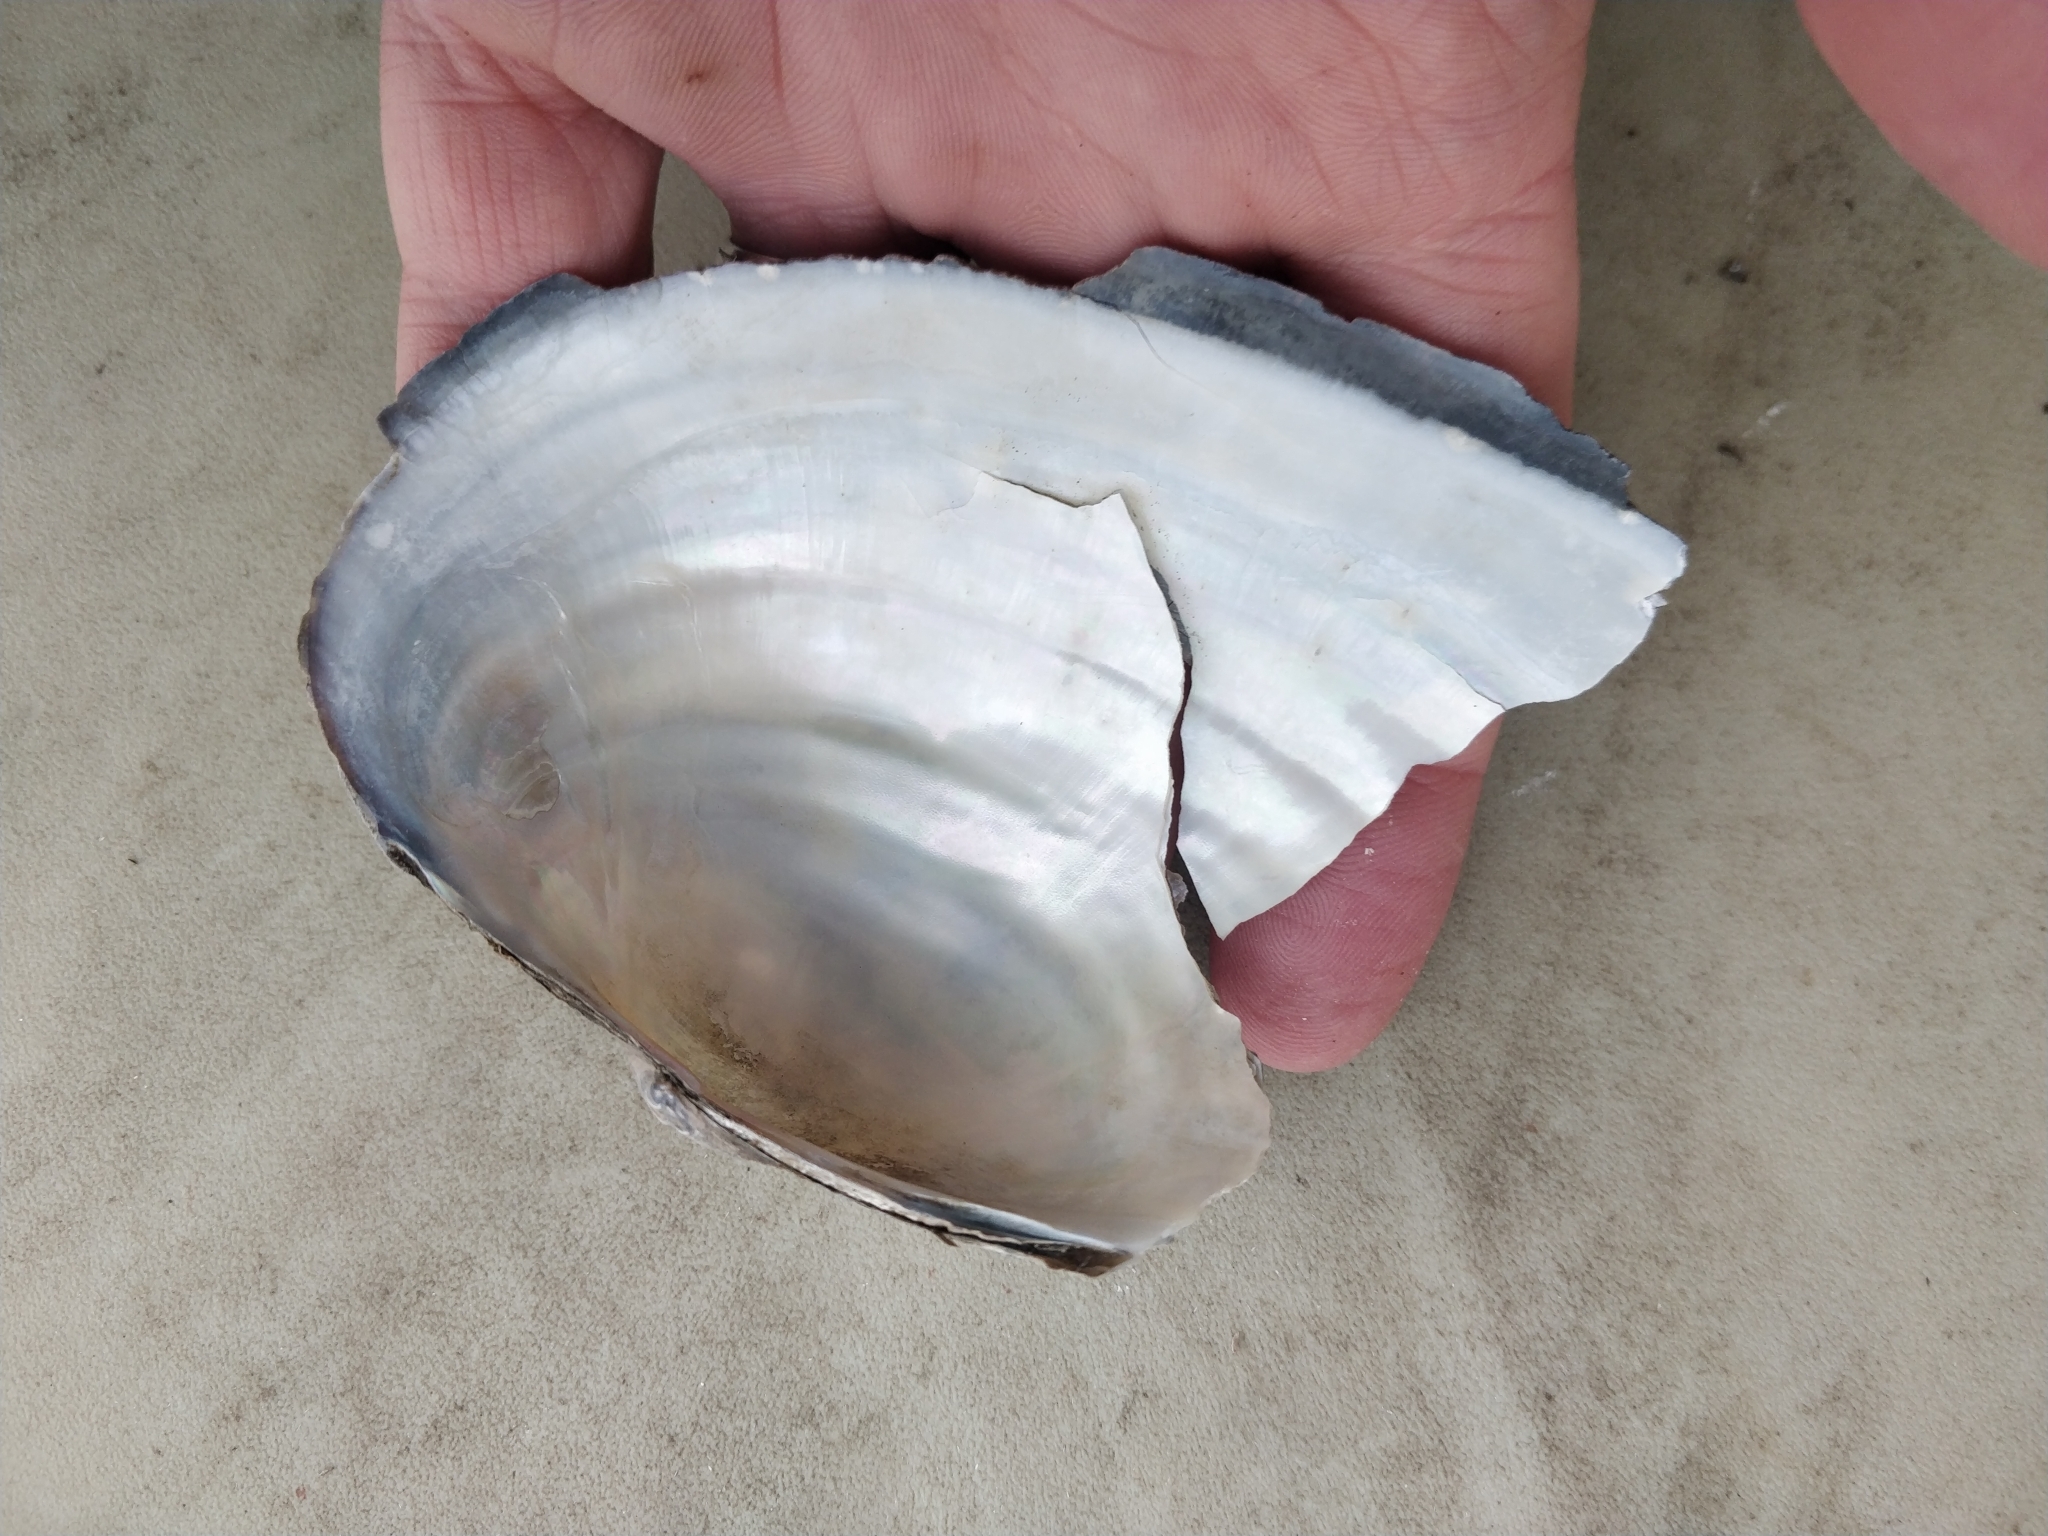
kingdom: Animalia
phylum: Mollusca
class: Bivalvia
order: Unionida
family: Unionidae
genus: Pyganodon
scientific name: Pyganodon grandis
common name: Giant floater
